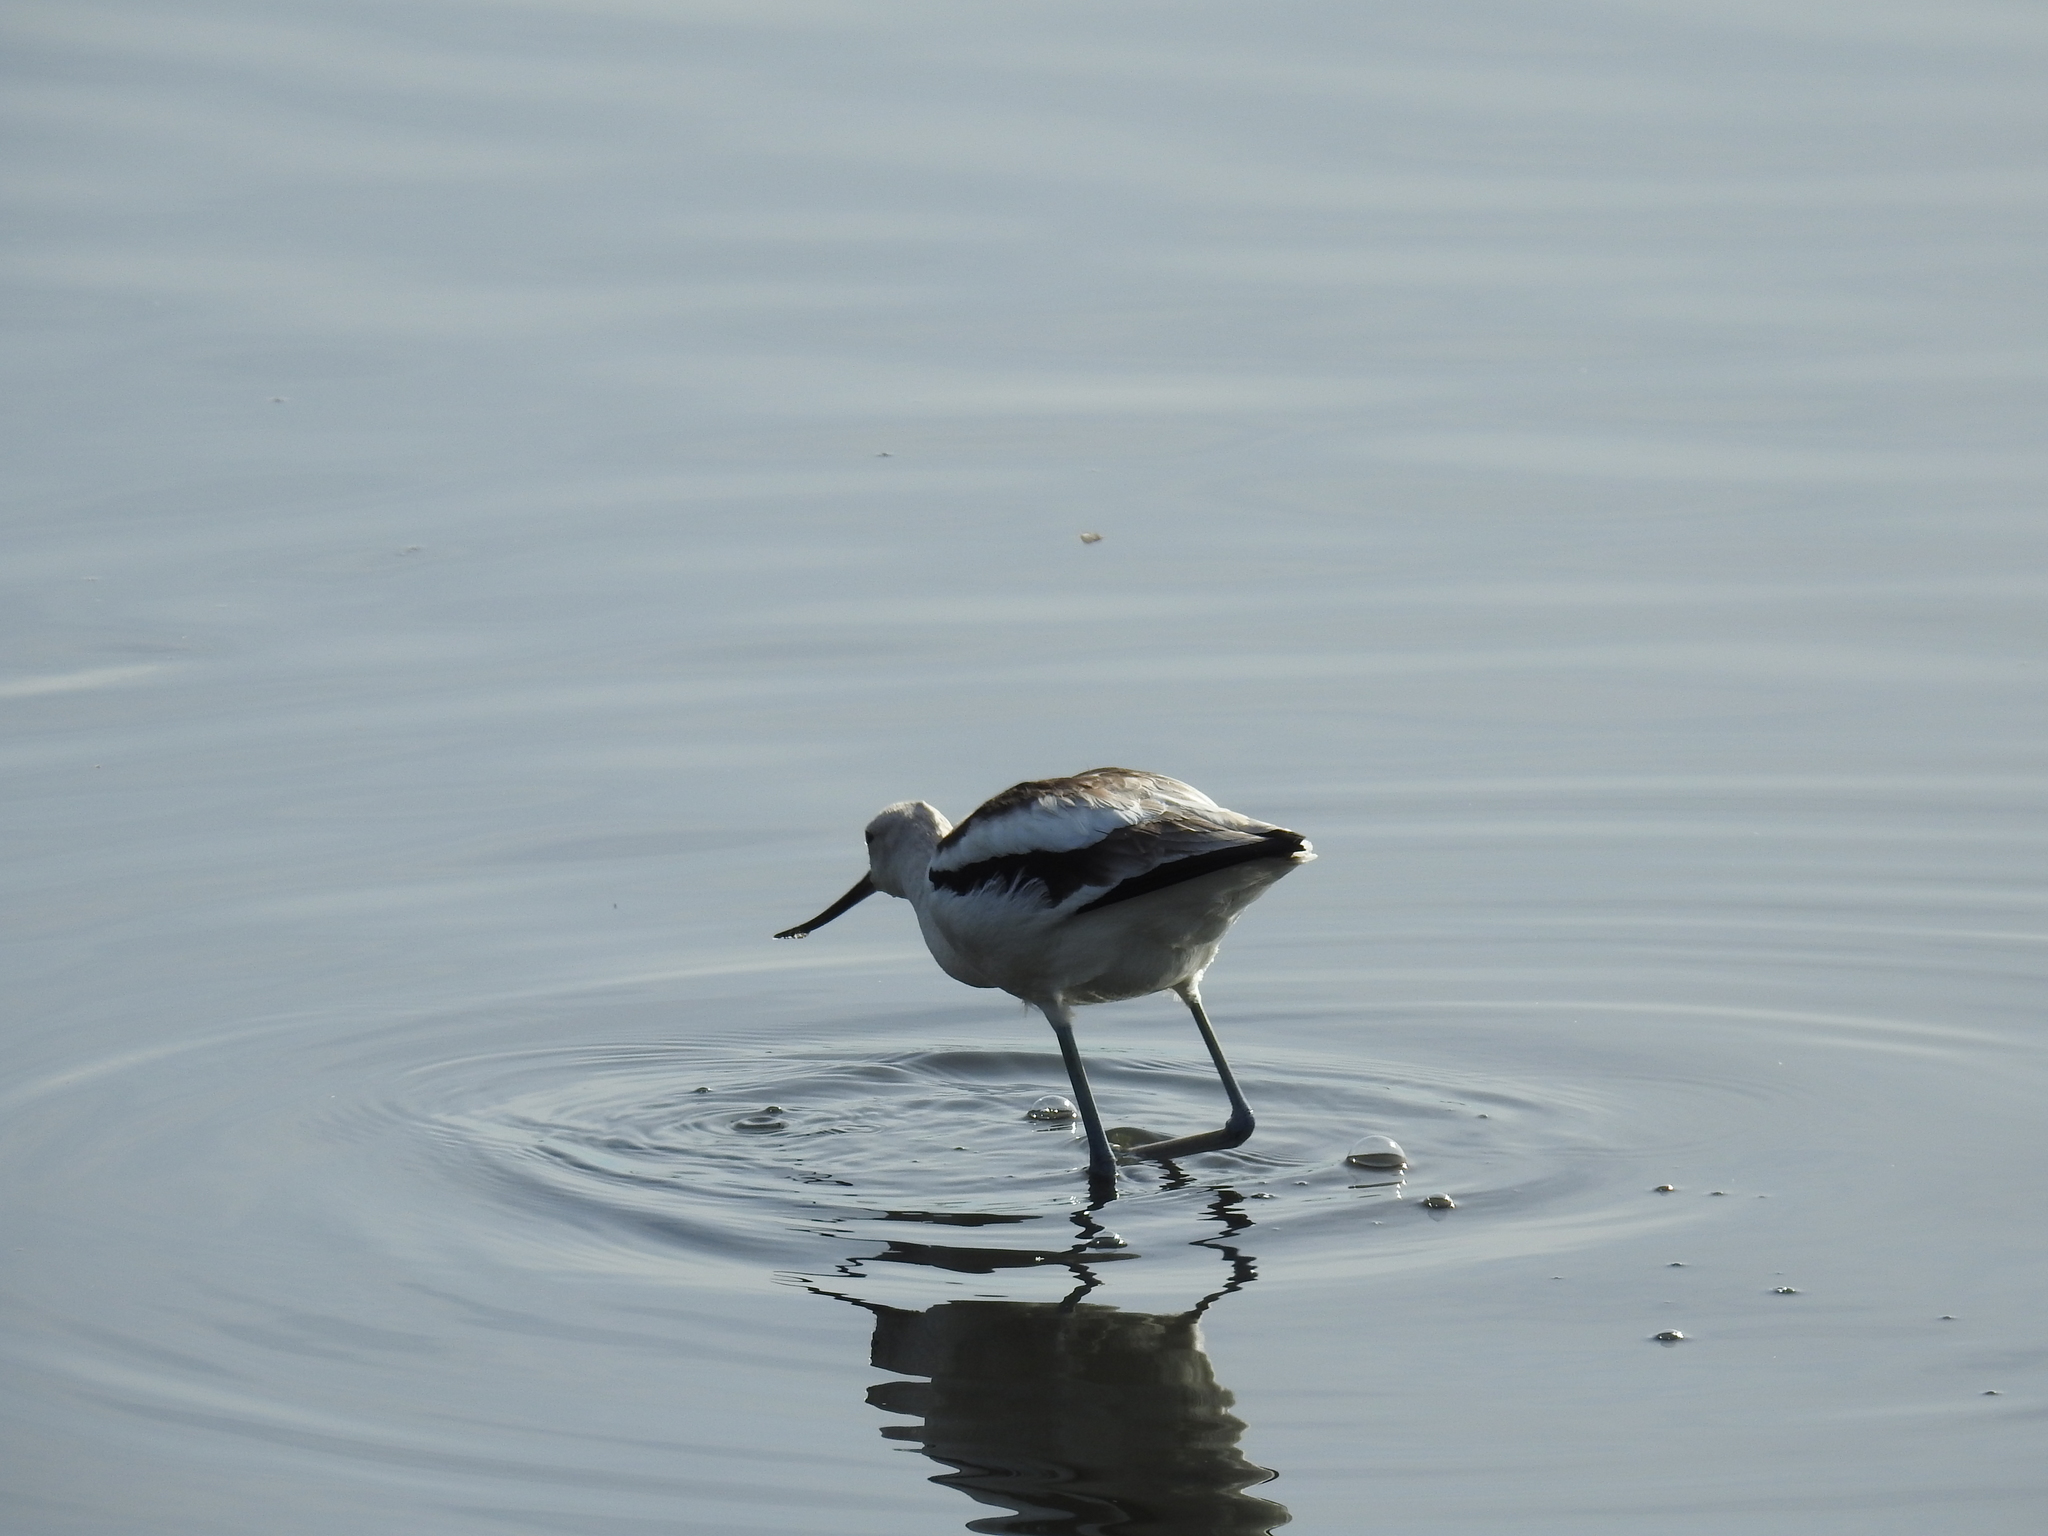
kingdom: Animalia
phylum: Chordata
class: Aves
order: Charadriiformes
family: Recurvirostridae
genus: Recurvirostra
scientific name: Recurvirostra americana
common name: American avocet
